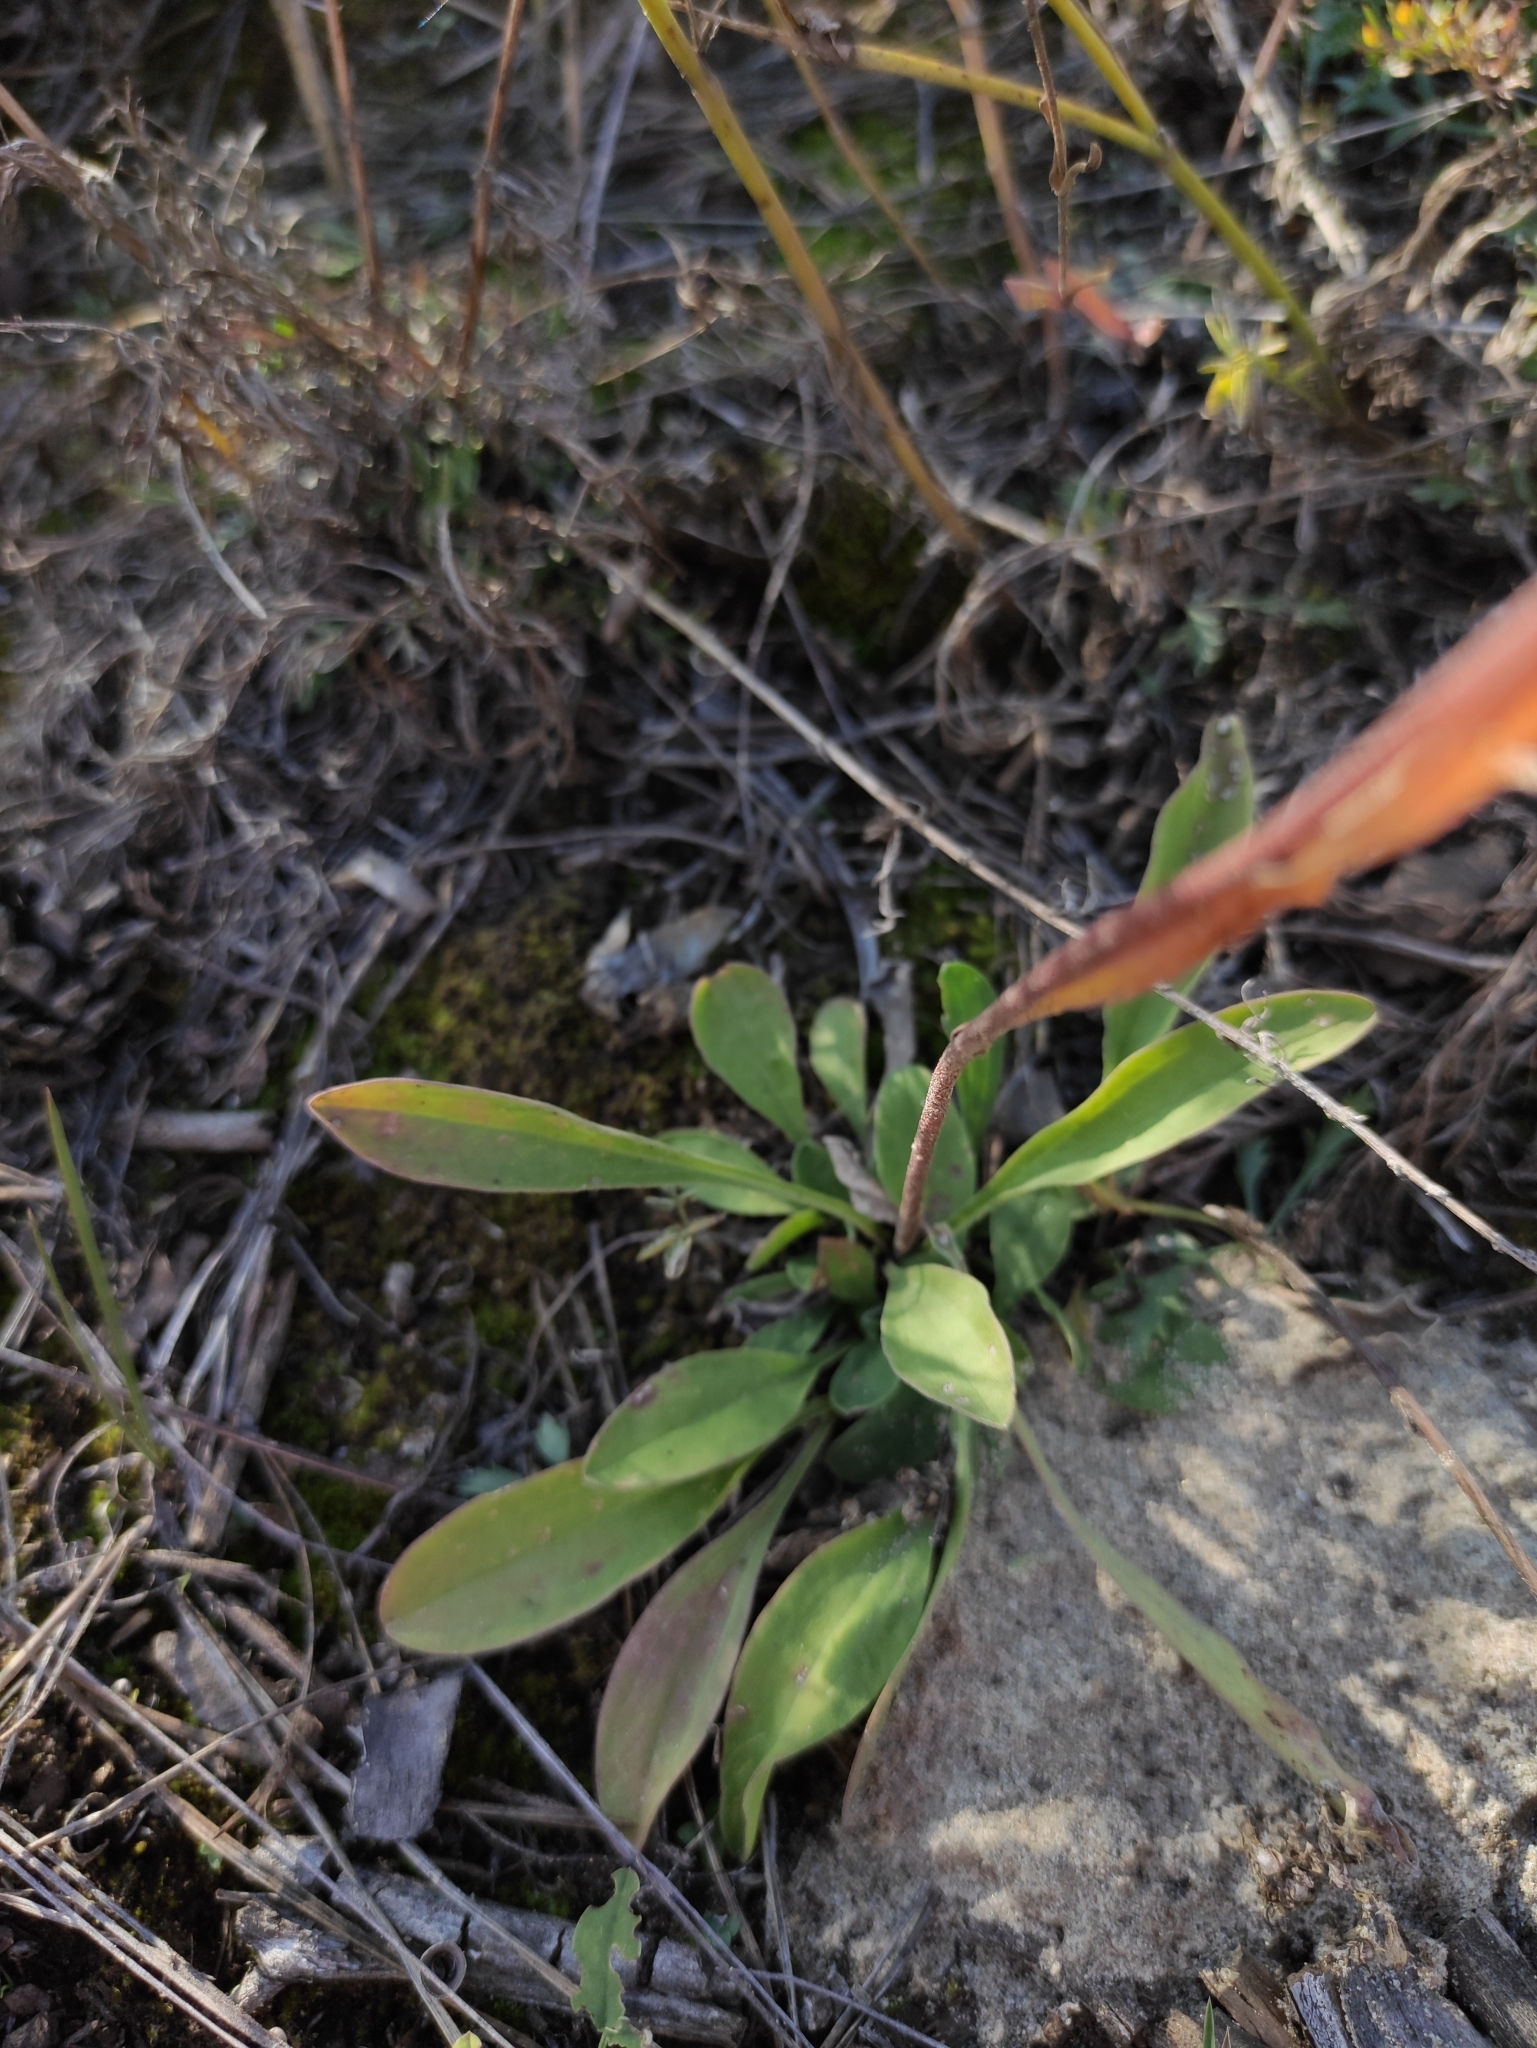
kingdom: Plantae
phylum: Tracheophyta
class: Magnoliopsida
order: Asterales
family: Asteraceae
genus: Aster
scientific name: Aster alpinus
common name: Alpine aster
